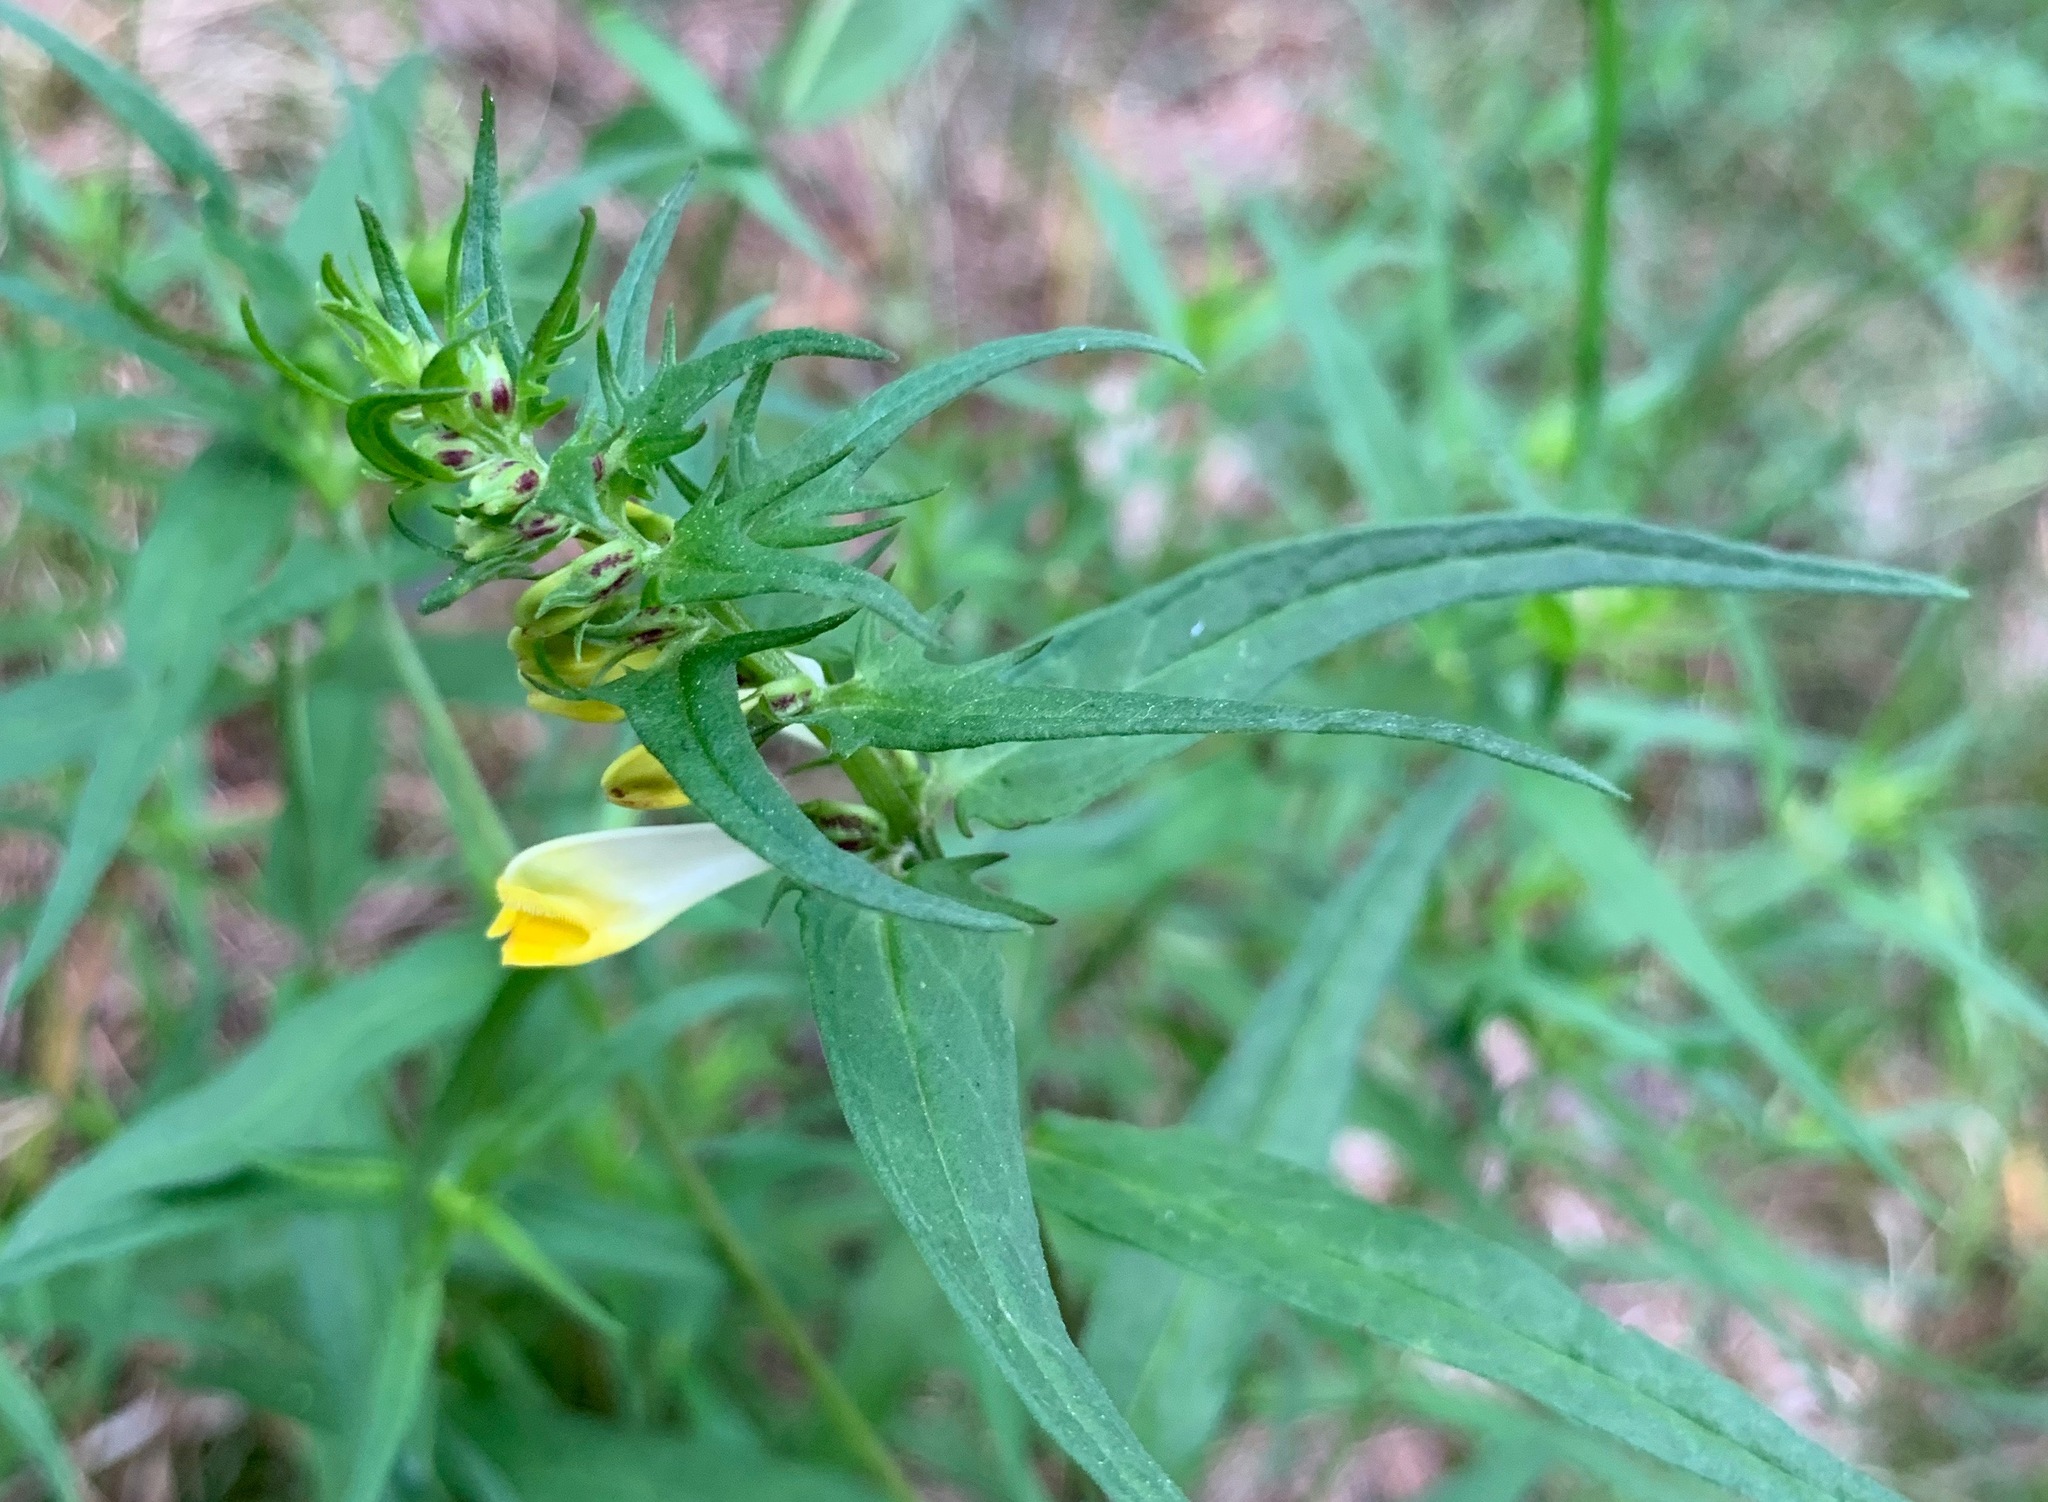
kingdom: Plantae
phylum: Tracheophyta
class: Magnoliopsida
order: Lamiales
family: Orobanchaceae
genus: Melampyrum
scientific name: Melampyrum pratense
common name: Common cow-wheat
